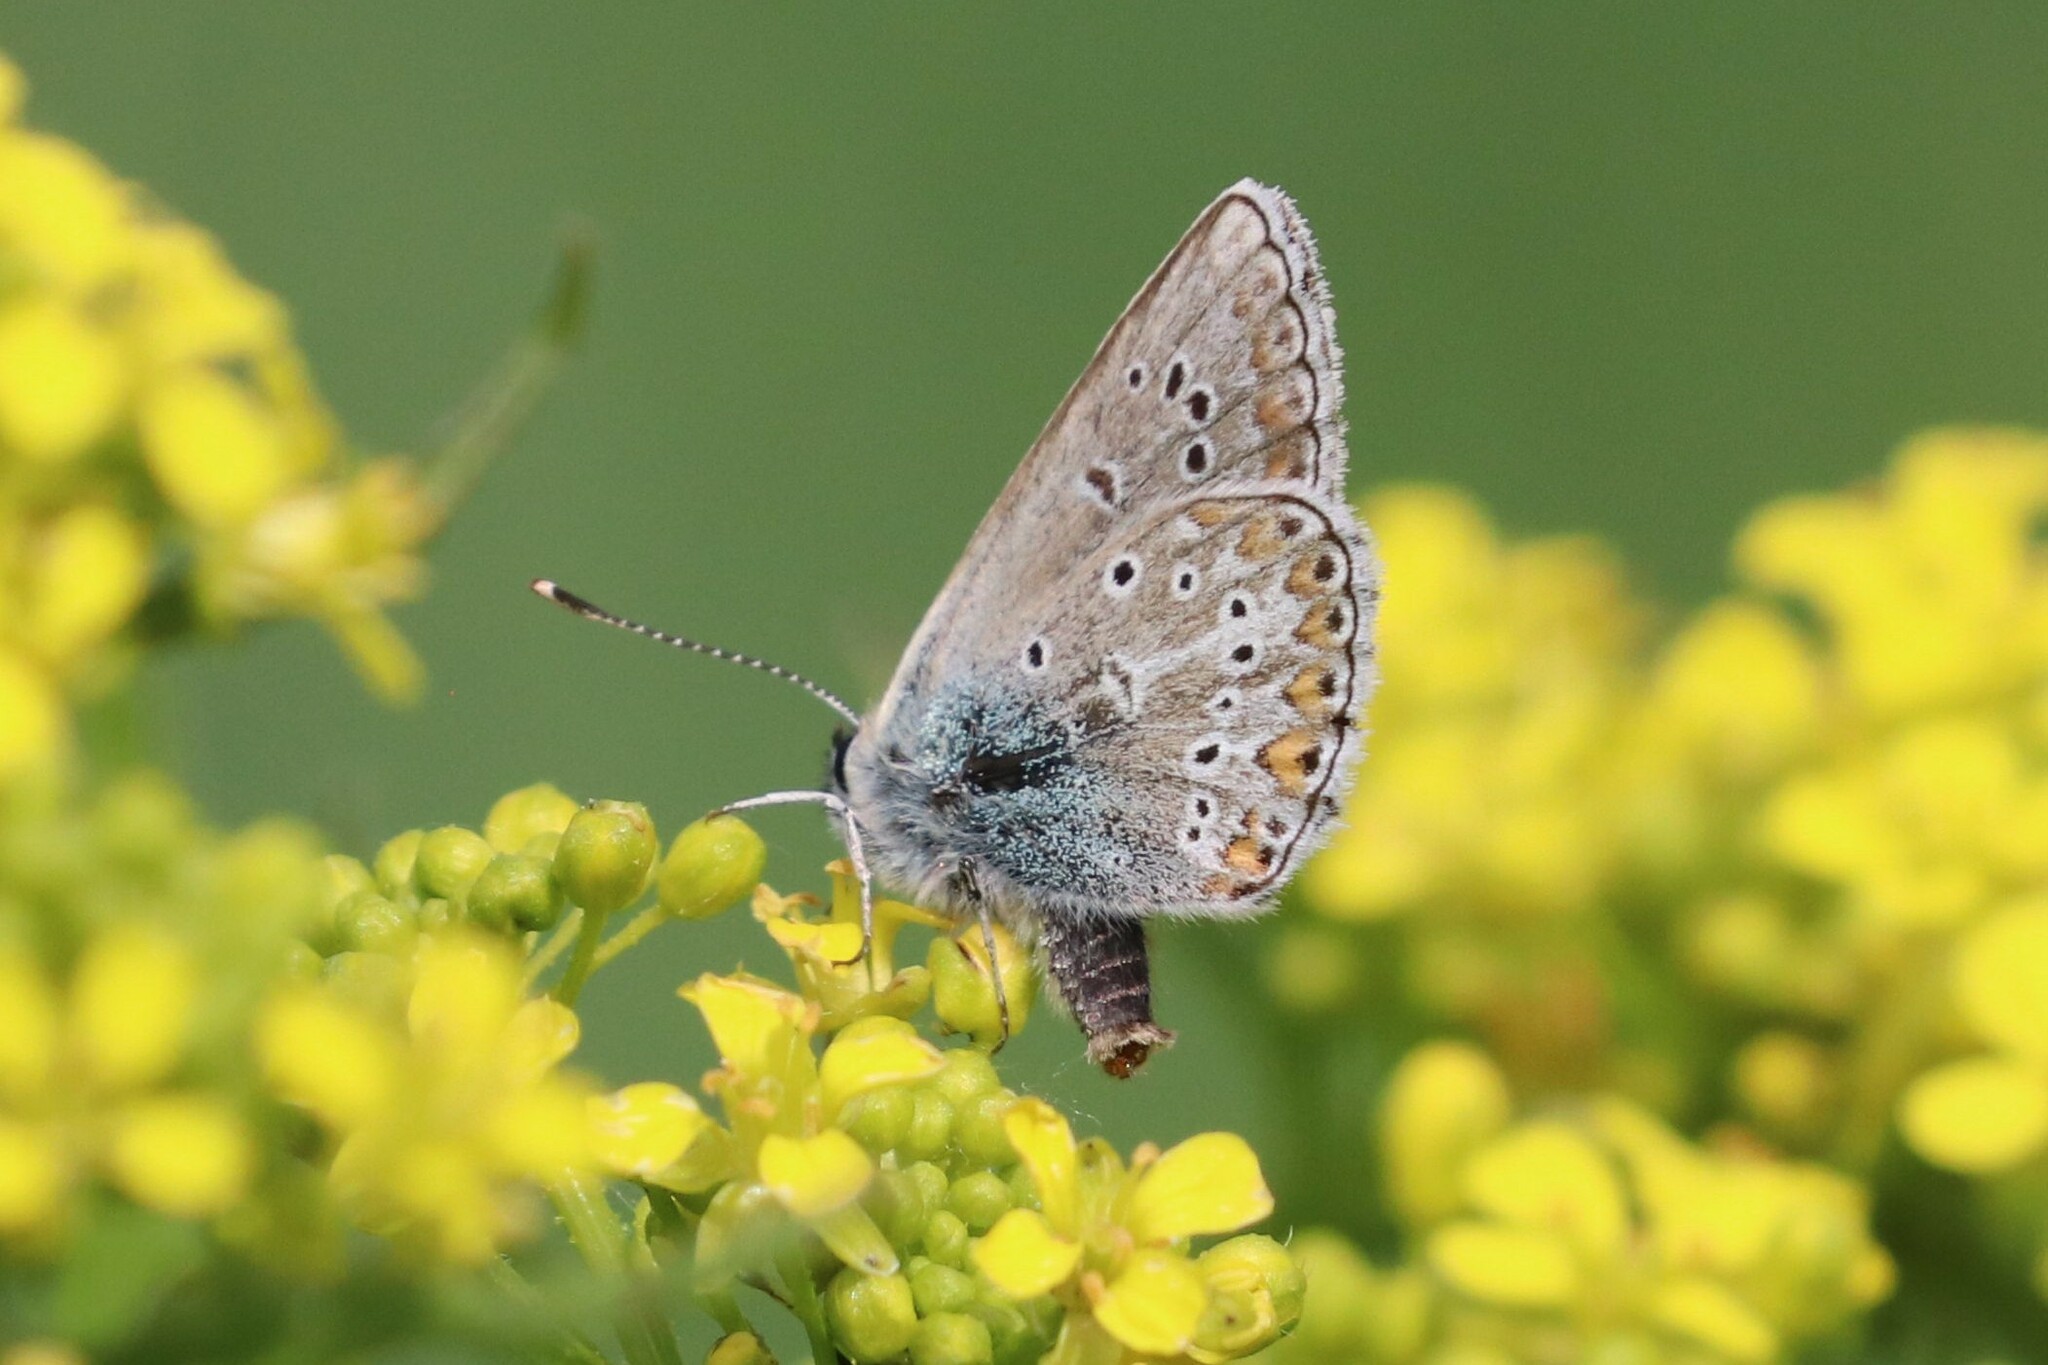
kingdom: Animalia
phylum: Arthropoda
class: Insecta
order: Lepidoptera
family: Lycaenidae
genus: Eumedonia
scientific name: Eumedonia eumedon
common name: Geranium argus
